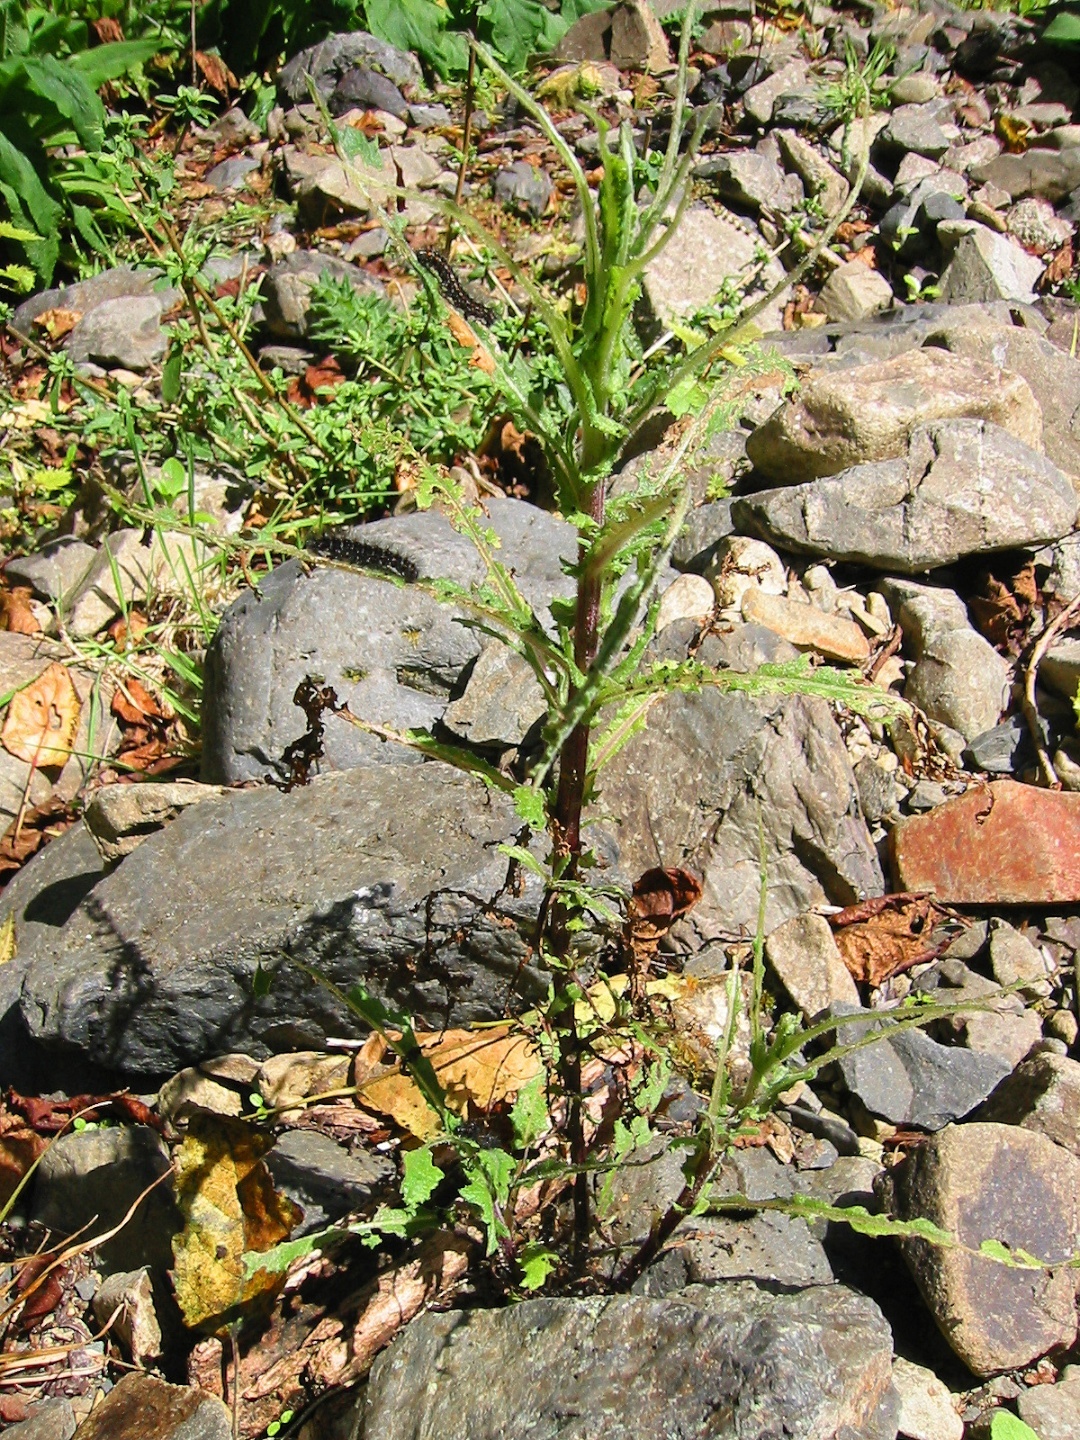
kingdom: Animalia
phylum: Arthropoda
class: Insecta
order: Lepidoptera
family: Erebidae
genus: Nyctemera
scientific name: Nyctemera annulatum
